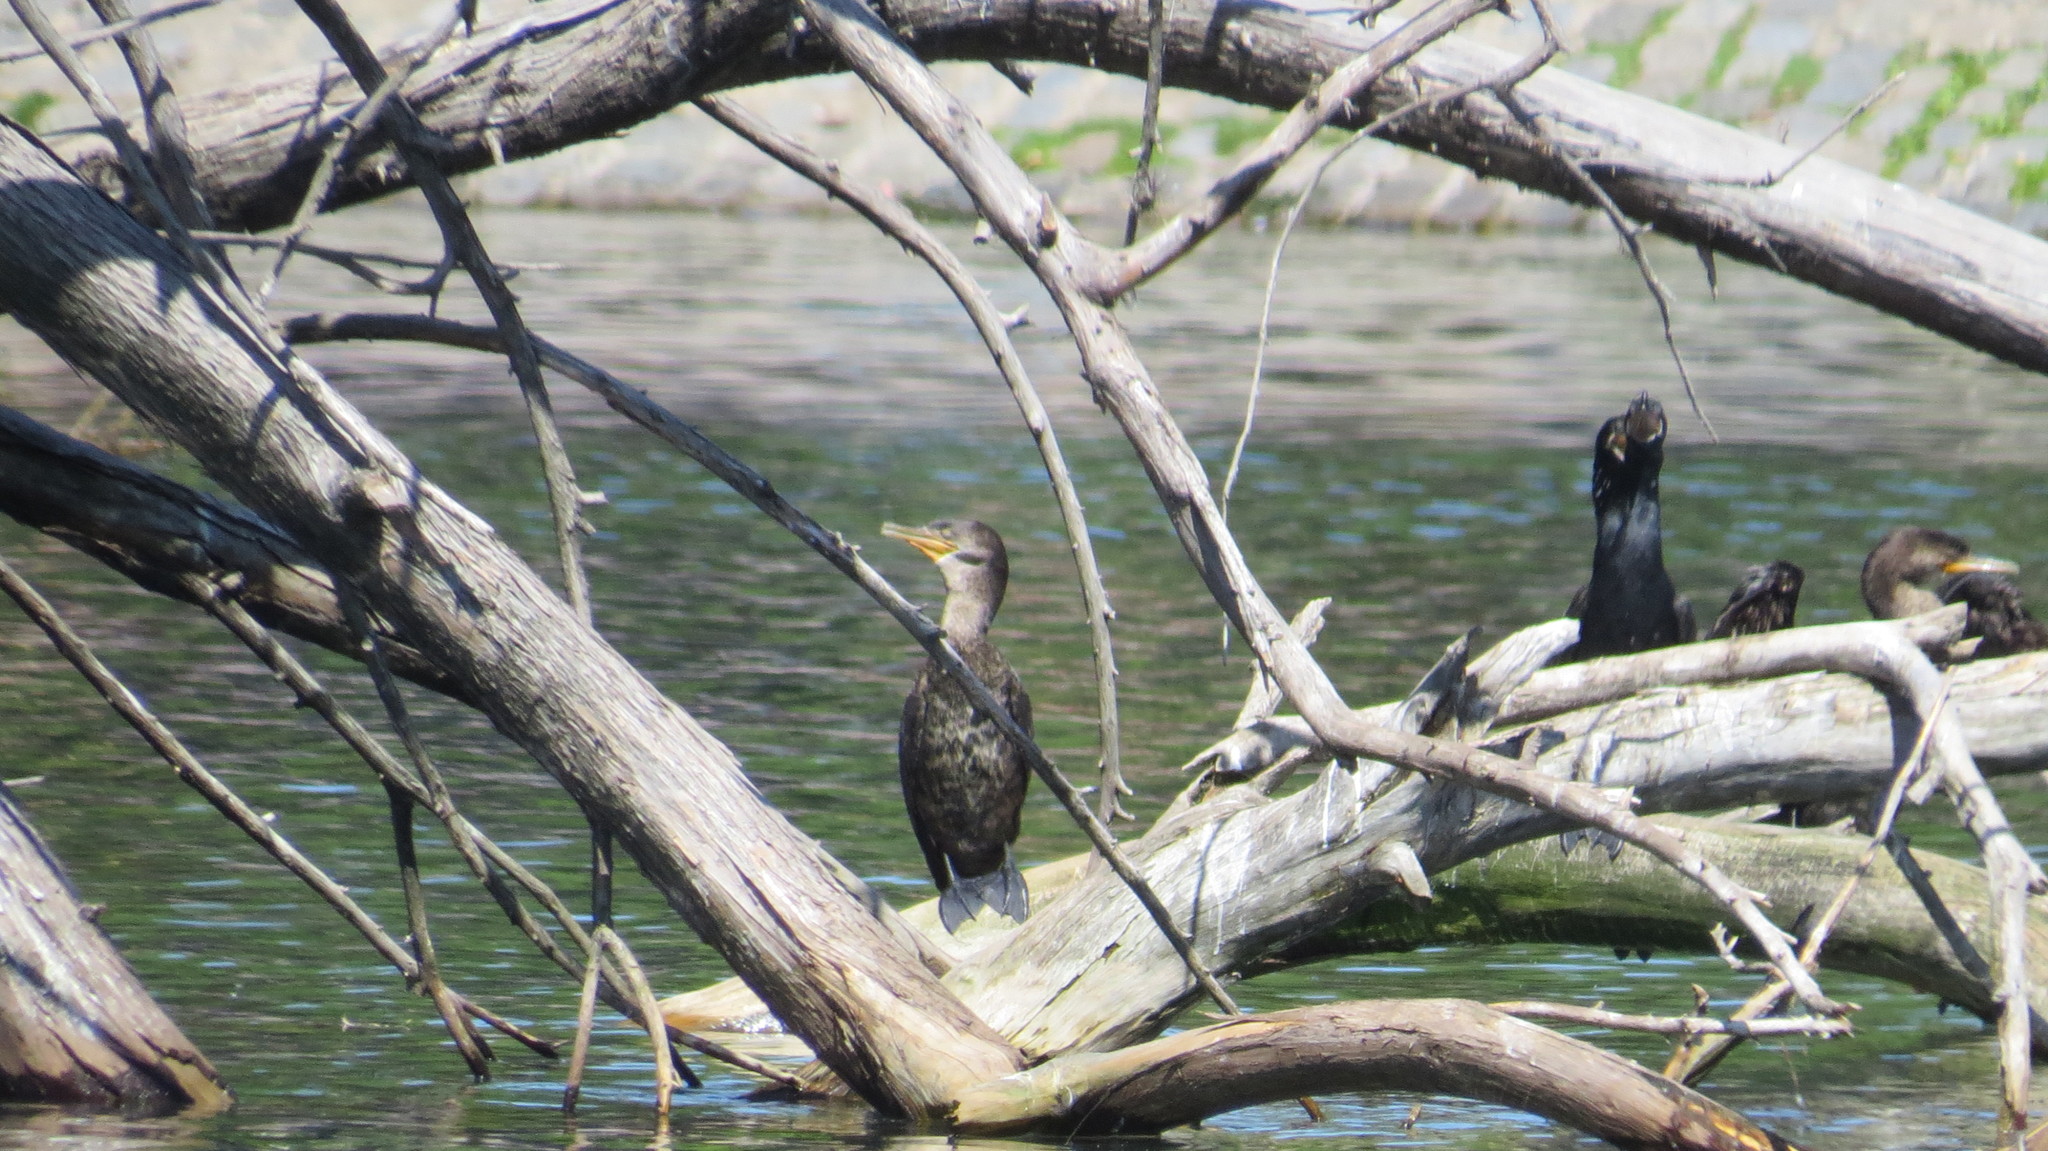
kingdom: Animalia
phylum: Chordata
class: Aves
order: Suliformes
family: Phalacrocoracidae
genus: Phalacrocorax
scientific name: Phalacrocorax brasilianus
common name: Neotropic cormorant
